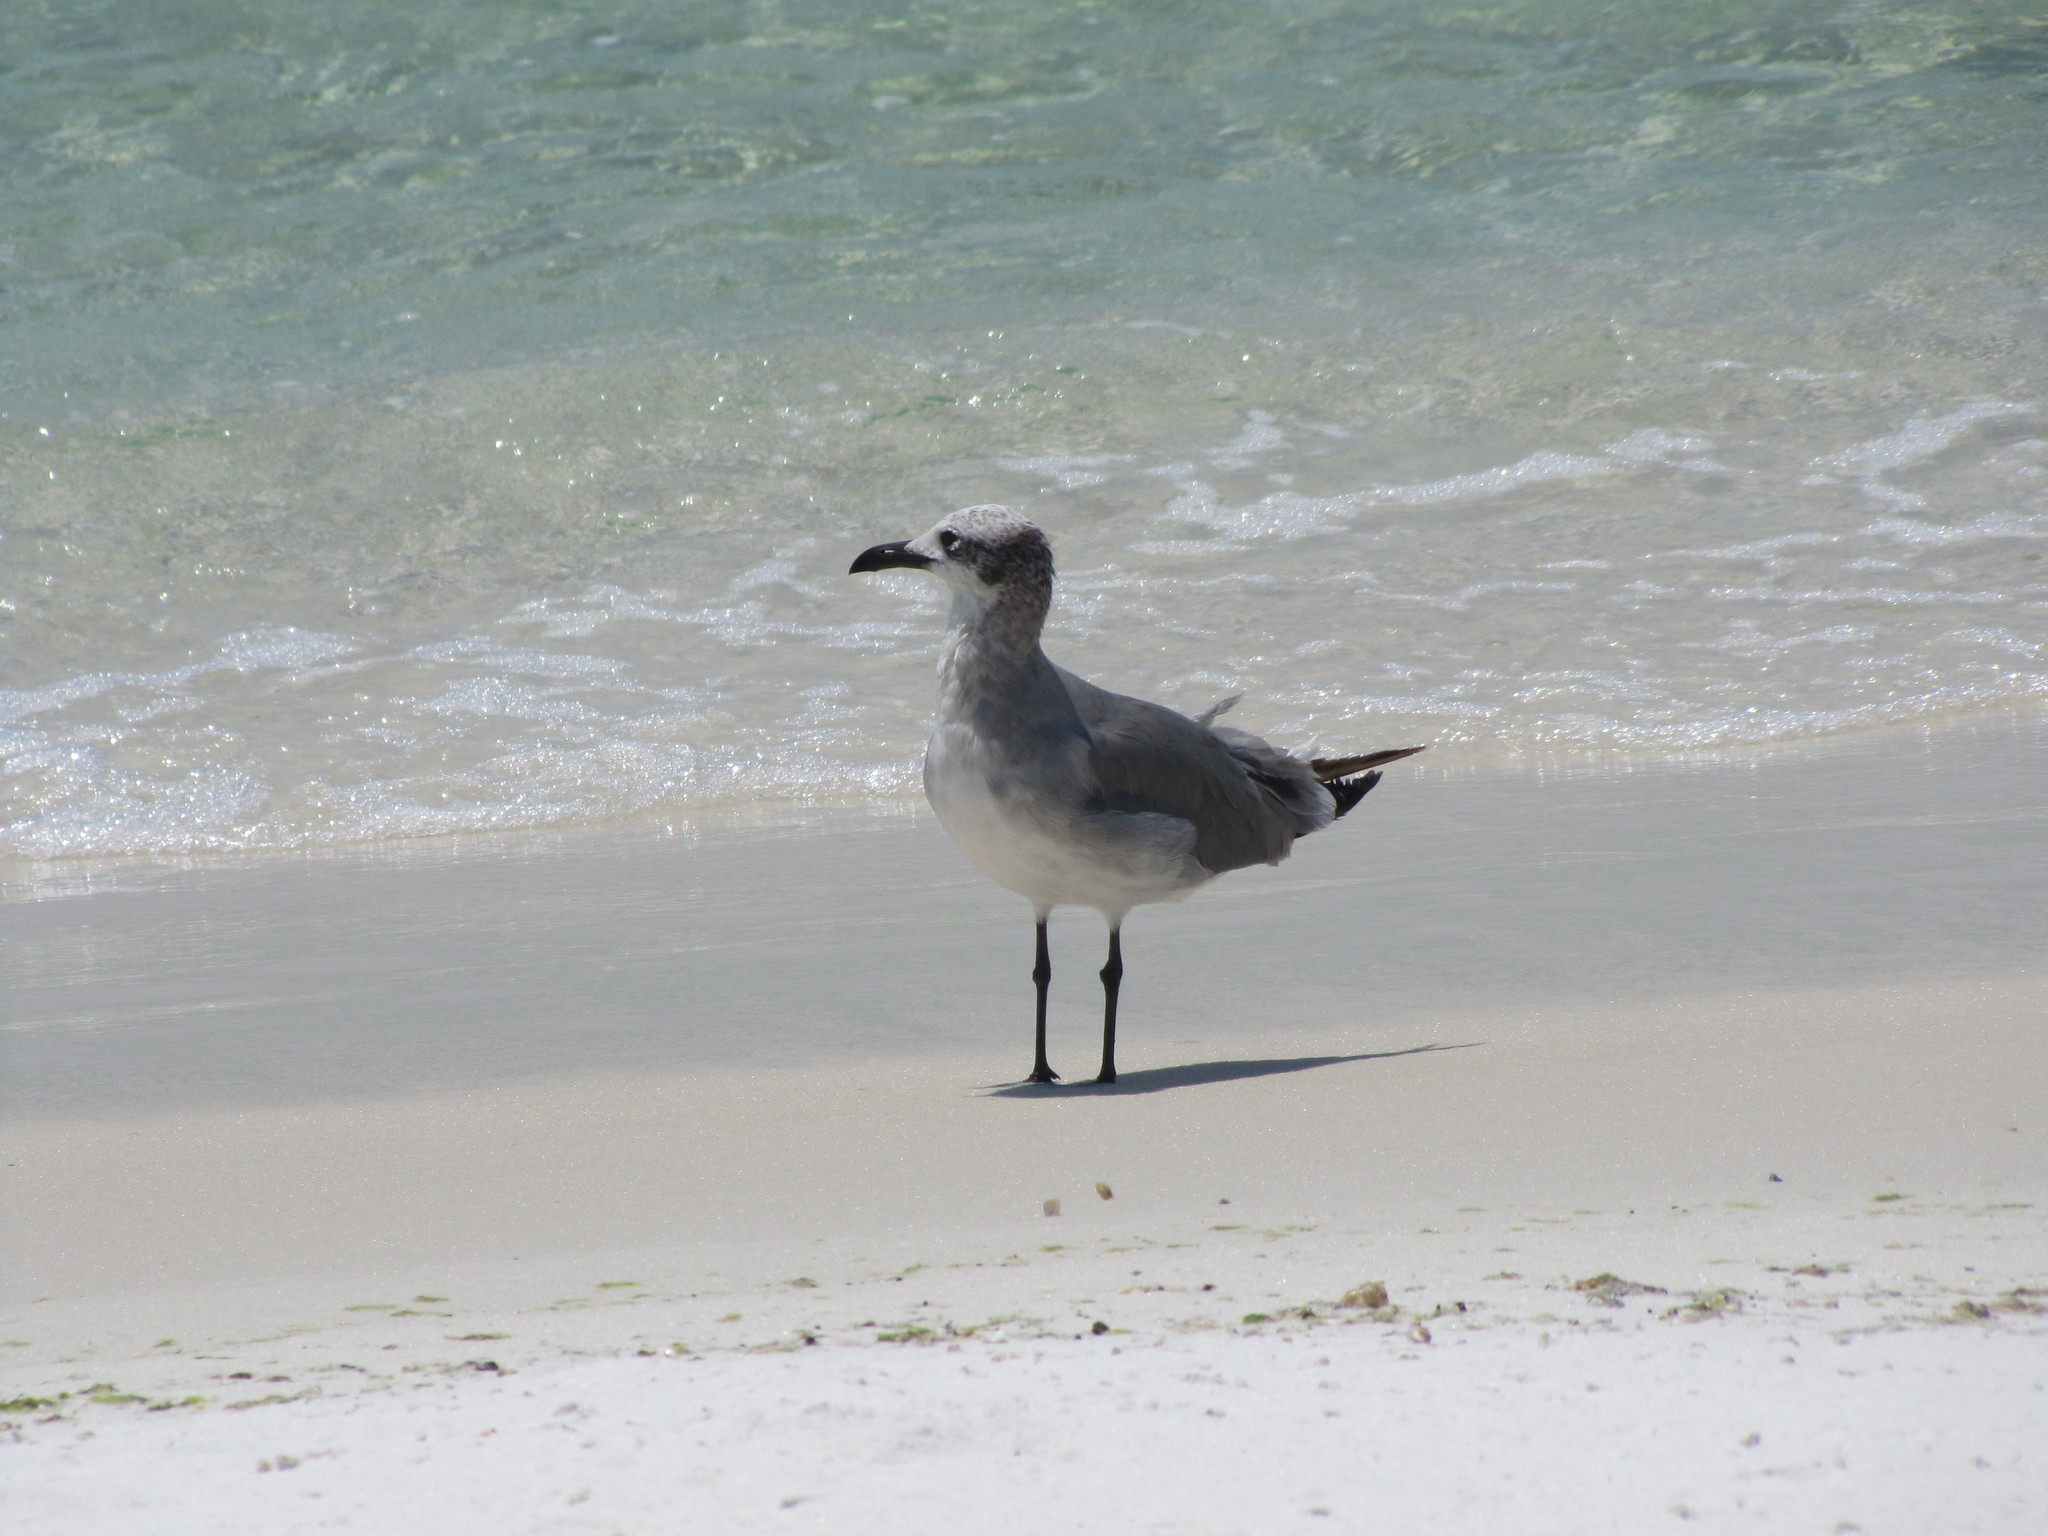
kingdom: Animalia
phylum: Chordata
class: Aves
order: Charadriiformes
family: Laridae
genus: Leucophaeus
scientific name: Leucophaeus atricilla
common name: Laughing gull
